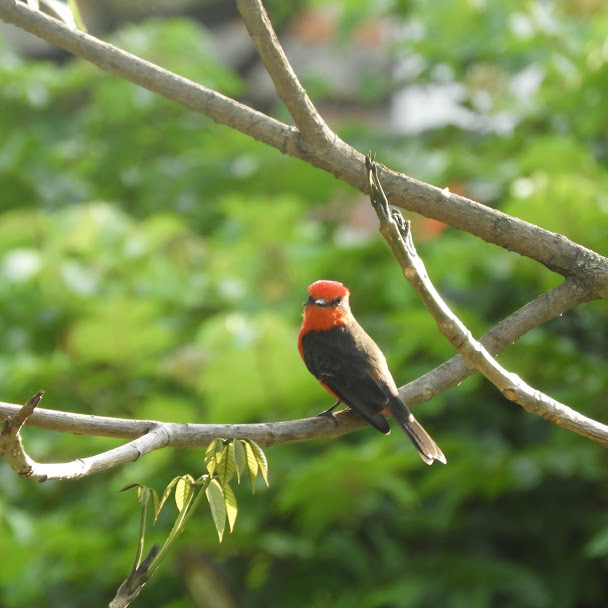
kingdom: Animalia
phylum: Chordata
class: Aves
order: Passeriformes
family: Tyrannidae
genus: Pyrocephalus
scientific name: Pyrocephalus rubinus
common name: Vermilion flycatcher
